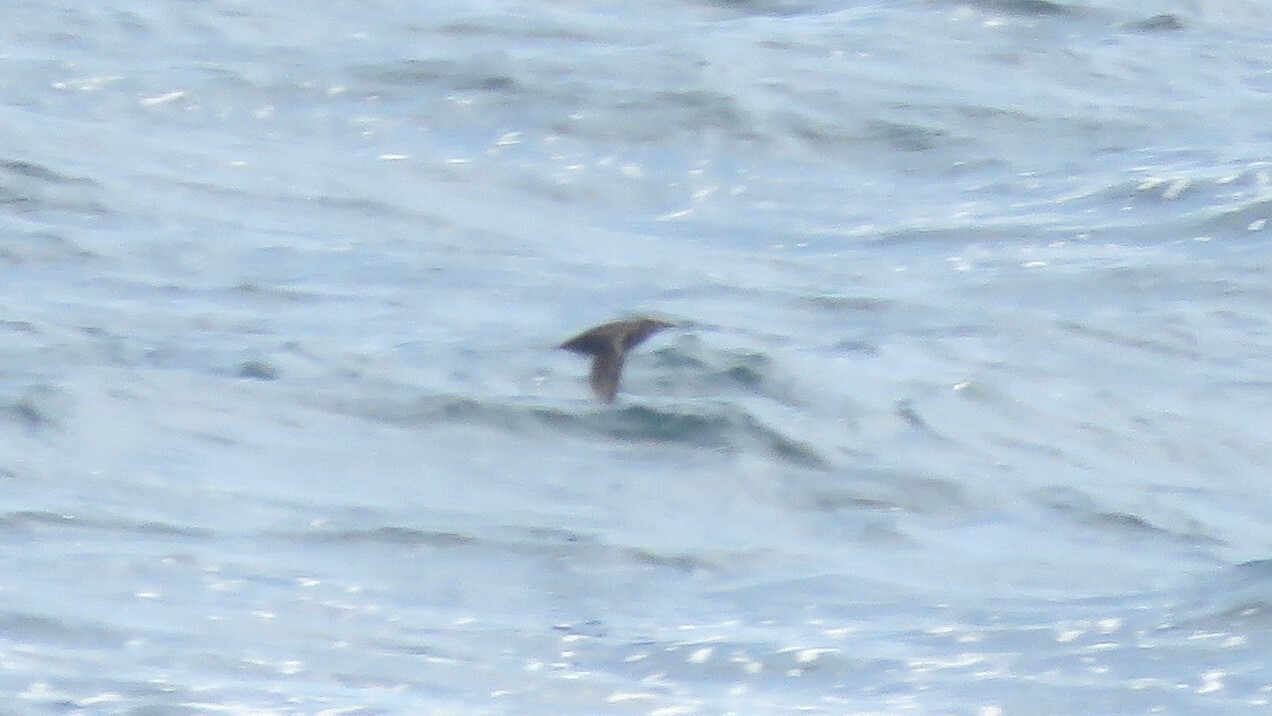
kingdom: Animalia
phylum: Chordata
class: Aves
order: Charadriiformes
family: Alcidae
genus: Brachyramphus
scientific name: Brachyramphus marmoratus
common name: Marbled murrelet
